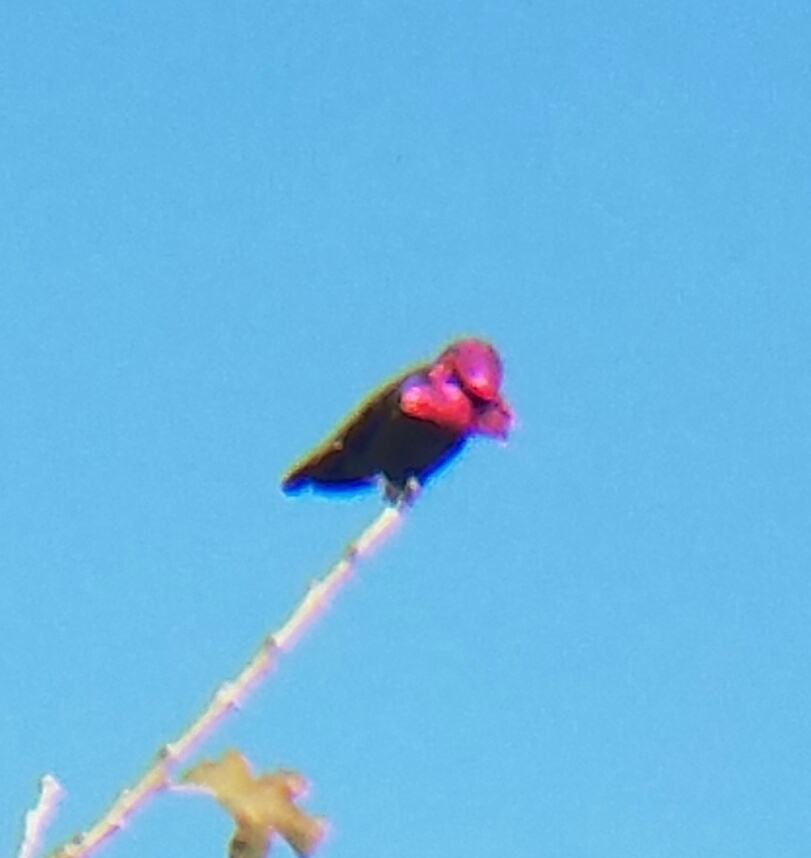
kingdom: Animalia
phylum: Chordata
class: Aves
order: Apodiformes
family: Trochilidae
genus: Calypte
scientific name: Calypte anna
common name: Anna's hummingbird
